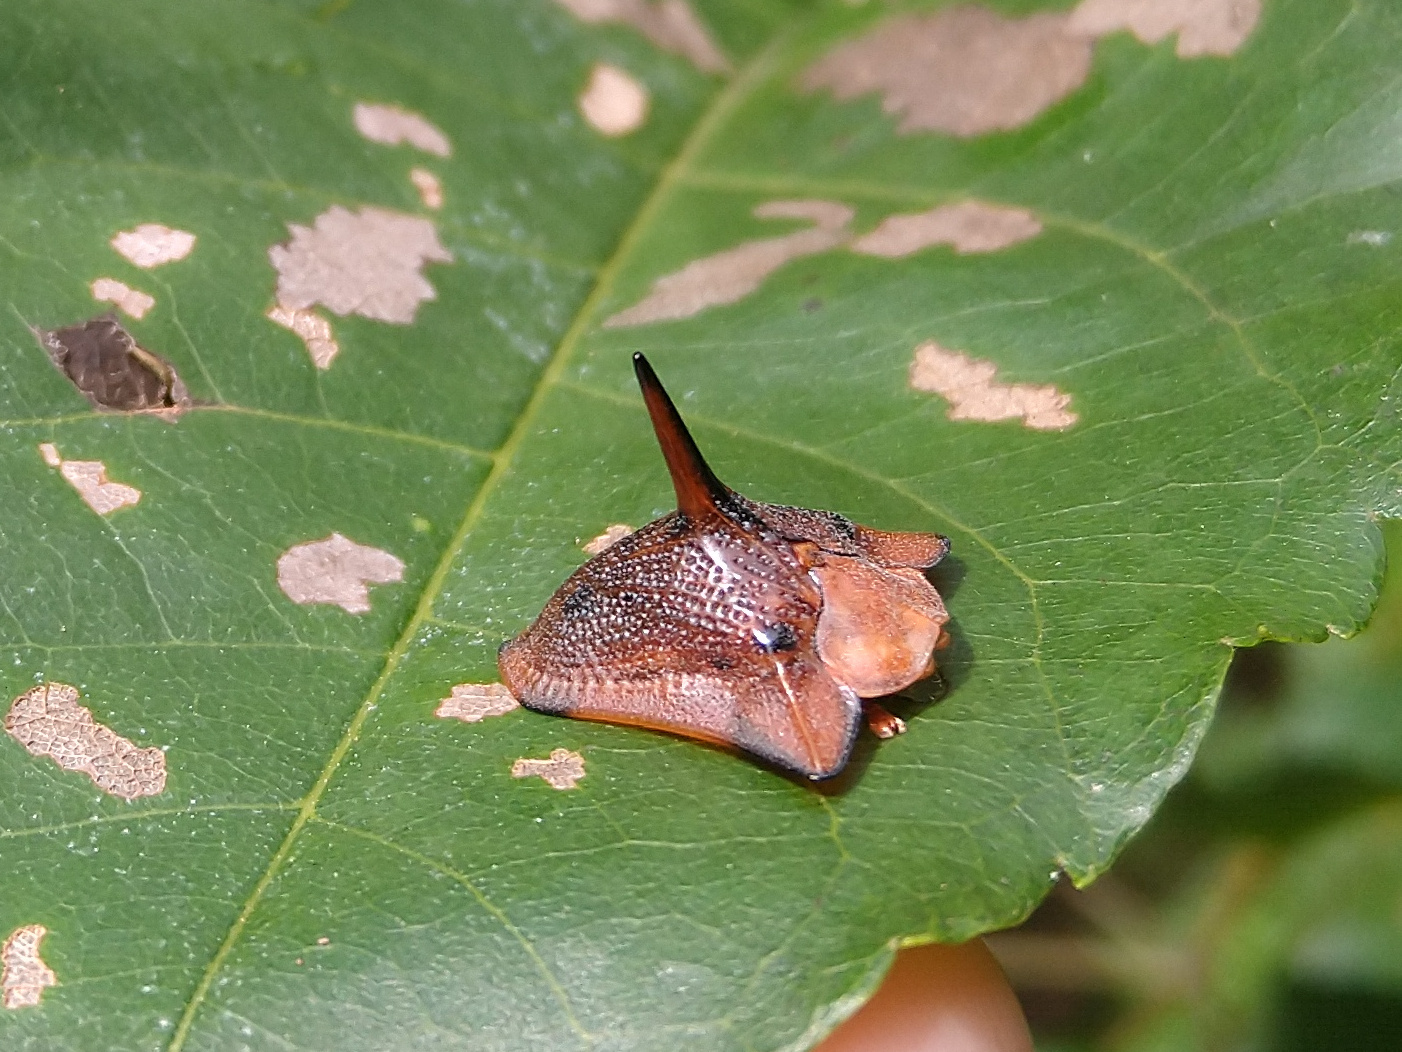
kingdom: Animalia
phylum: Arthropoda
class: Insecta
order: Coleoptera
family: Chrysomelidae
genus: Dorynota
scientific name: Dorynota monoceros
